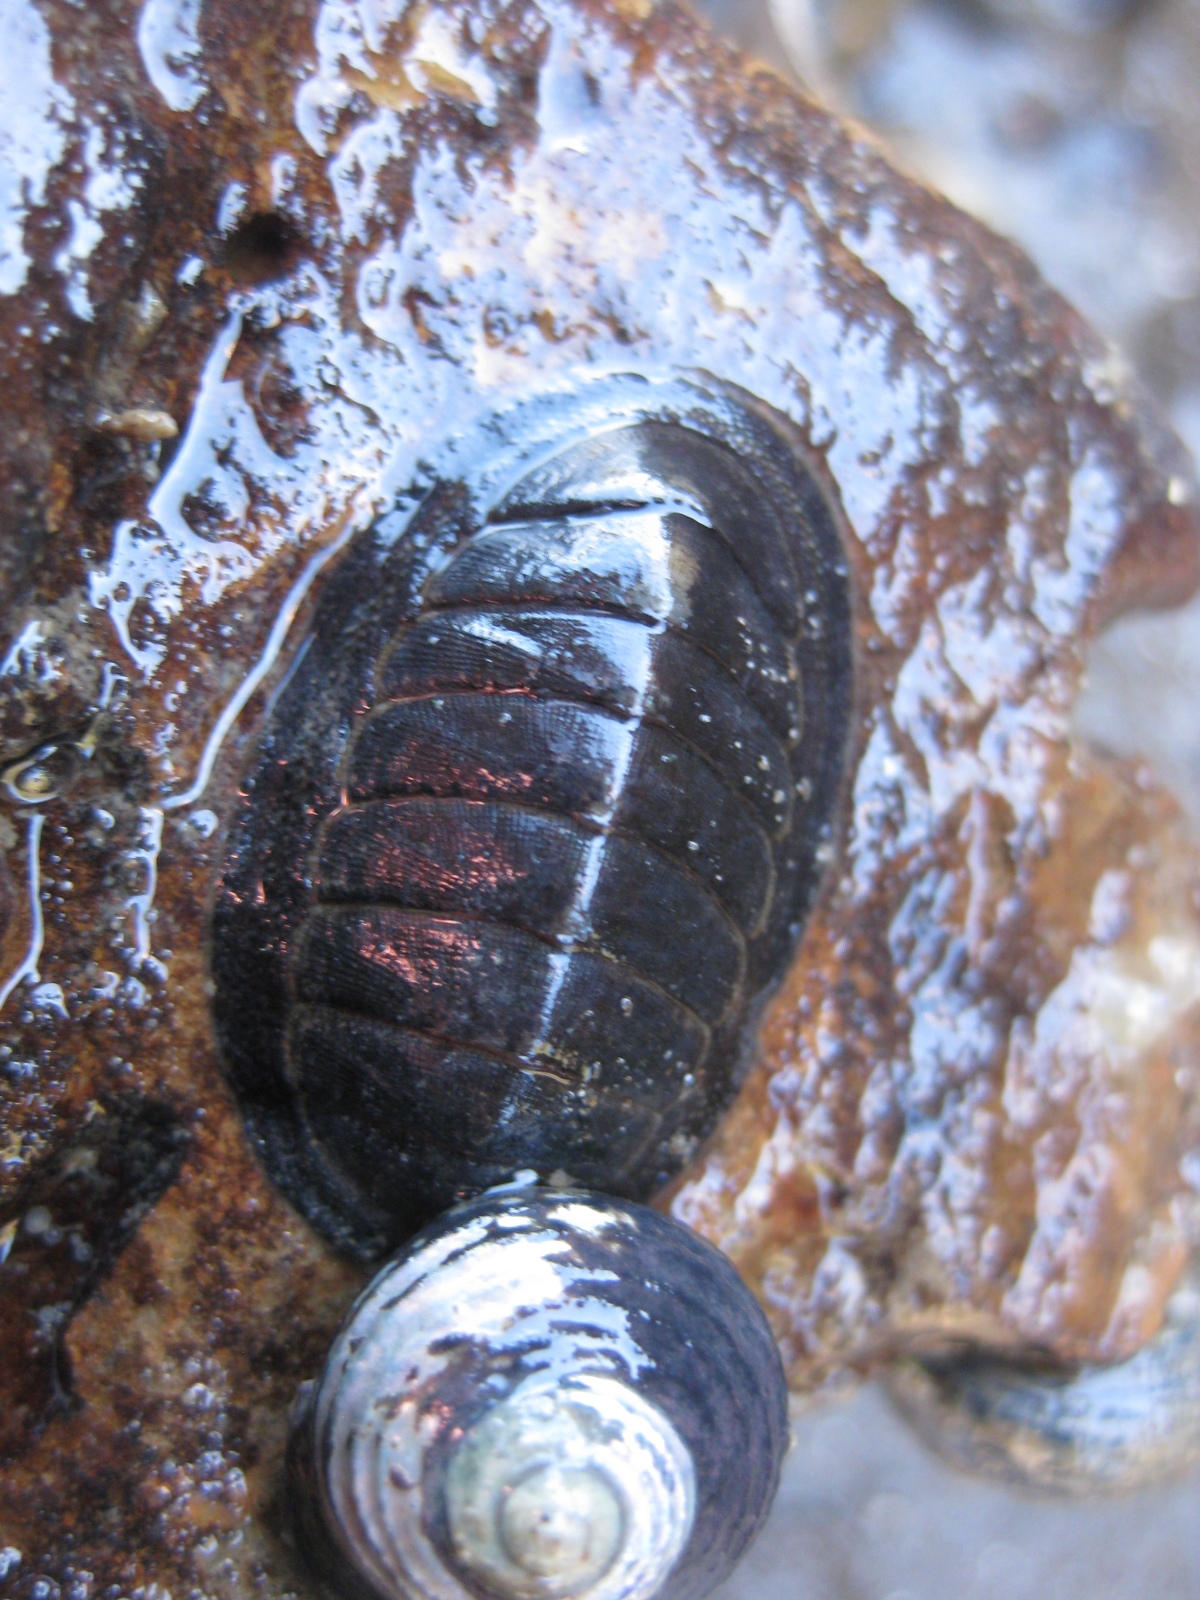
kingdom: Animalia
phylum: Mollusca
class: Polyplacophora
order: Chitonida
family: Chitonidae
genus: Chiton
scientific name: Chiton glaucus
